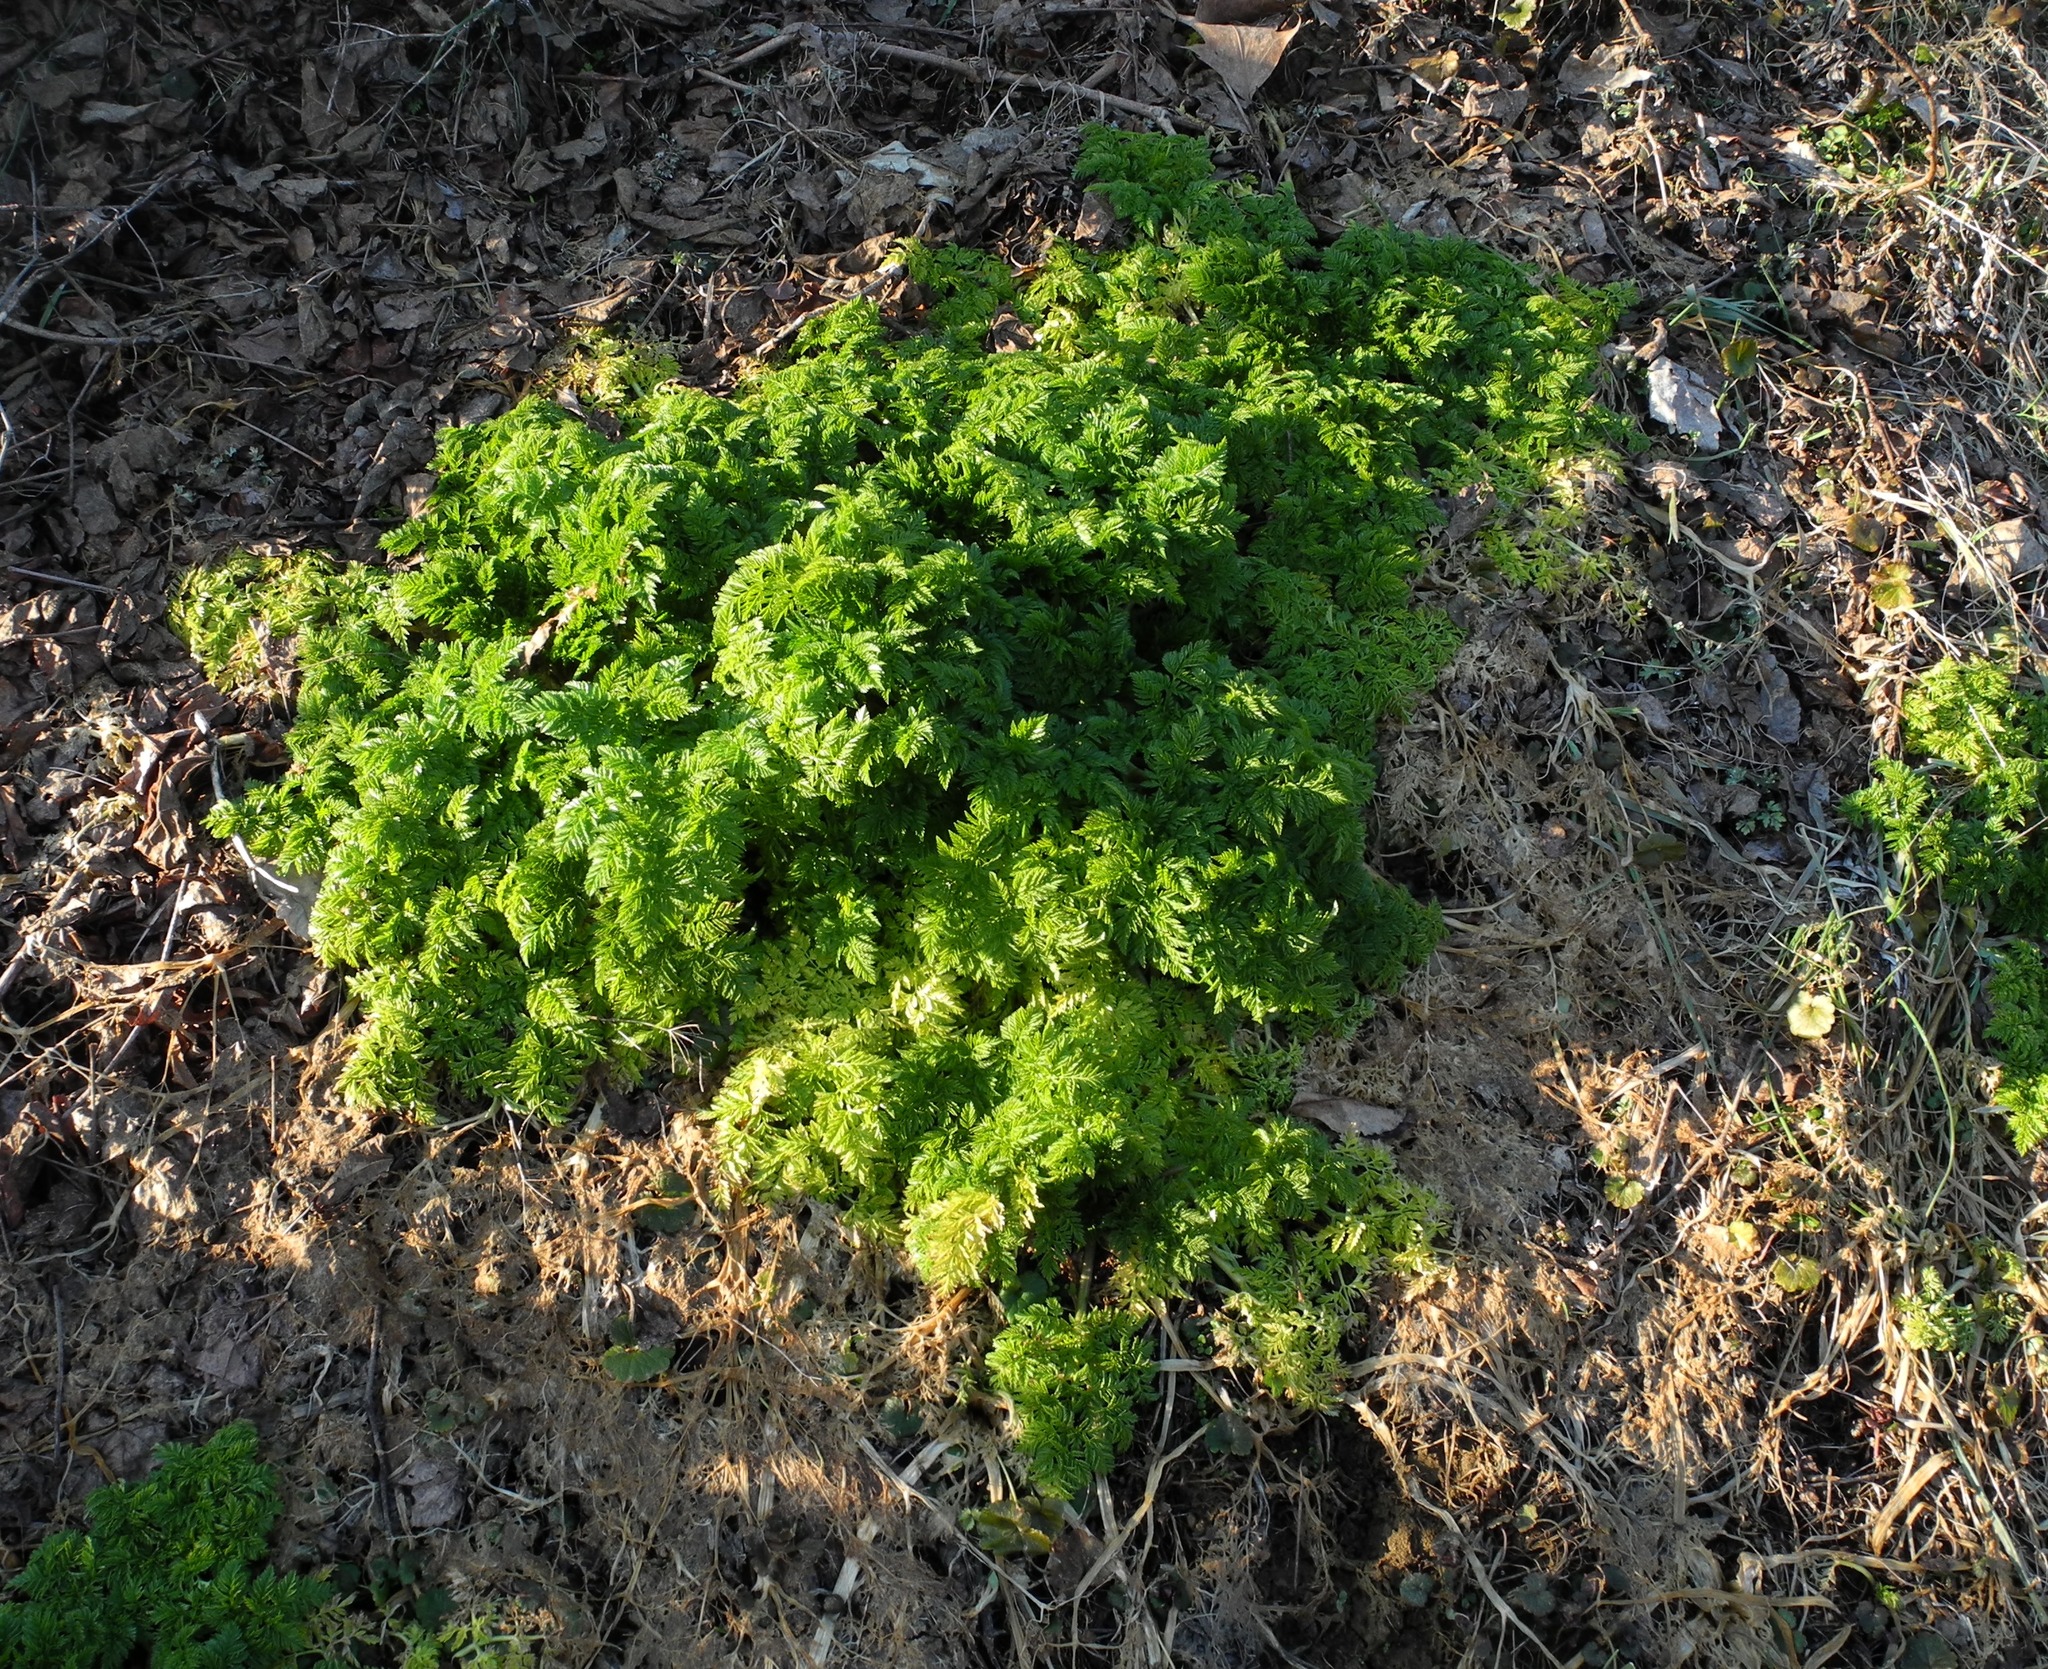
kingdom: Plantae
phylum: Tracheophyta
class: Magnoliopsida
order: Apiales
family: Apiaceae
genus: Conium
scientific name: Conium maculatum
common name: Hemlock
